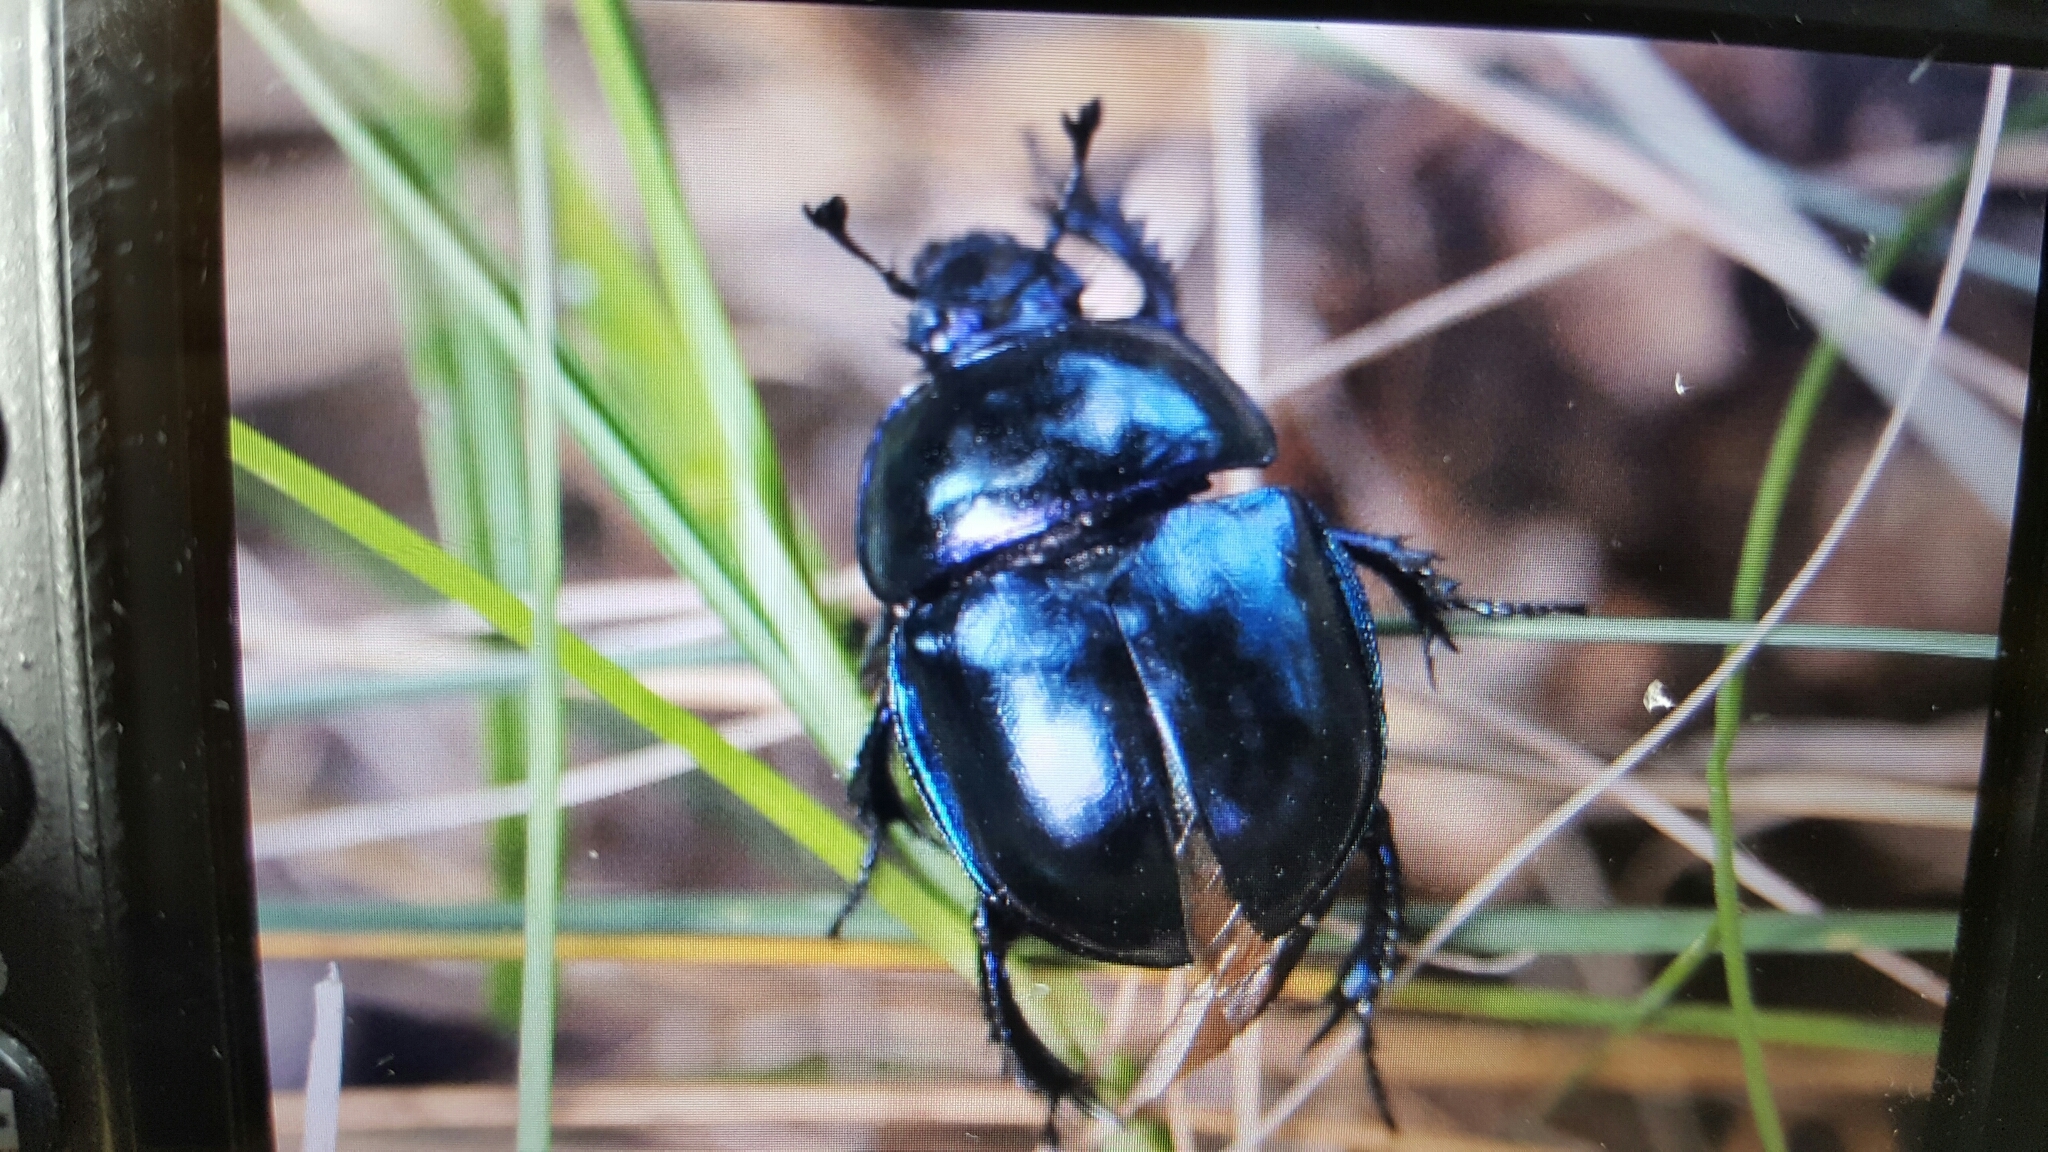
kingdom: Animalia
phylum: Arthropoda
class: Insecta
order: Coleoptera
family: Geotrupidae
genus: Trypocopris
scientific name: Trypocopris vernalis
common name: Spring dumbledor
